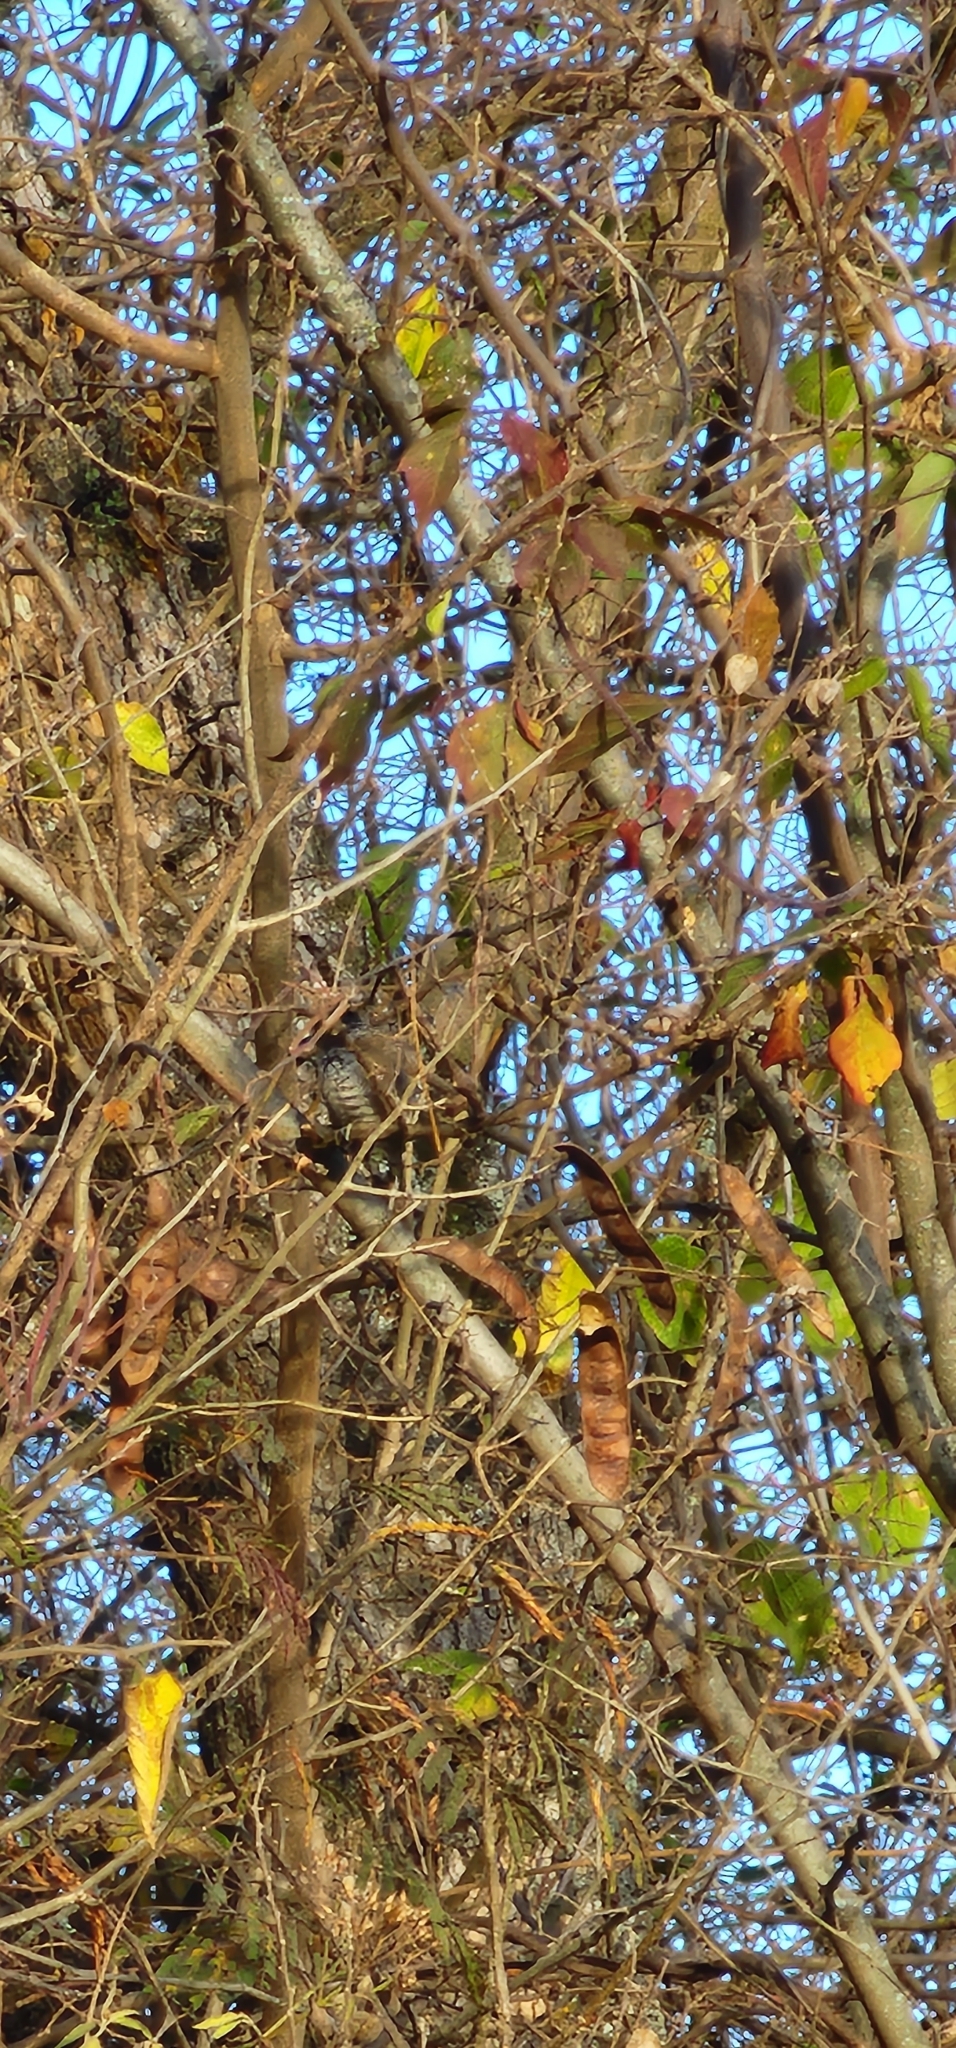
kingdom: Animalia
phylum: Chordata
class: Aves
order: Piciformes
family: Picidae
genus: Picumnus
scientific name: Picumnus cirratus
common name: White-barred piculet
